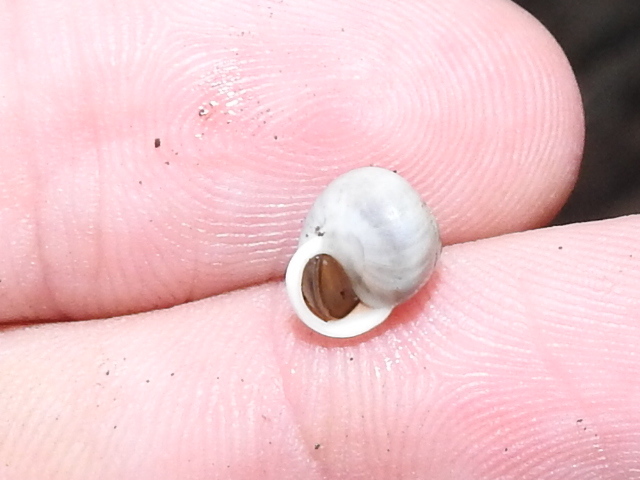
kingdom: Animalia
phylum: Mollusca
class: Gastropoda
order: Cycloneritida
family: Helicinidae
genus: Helicina
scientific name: Helicina orbiculata
